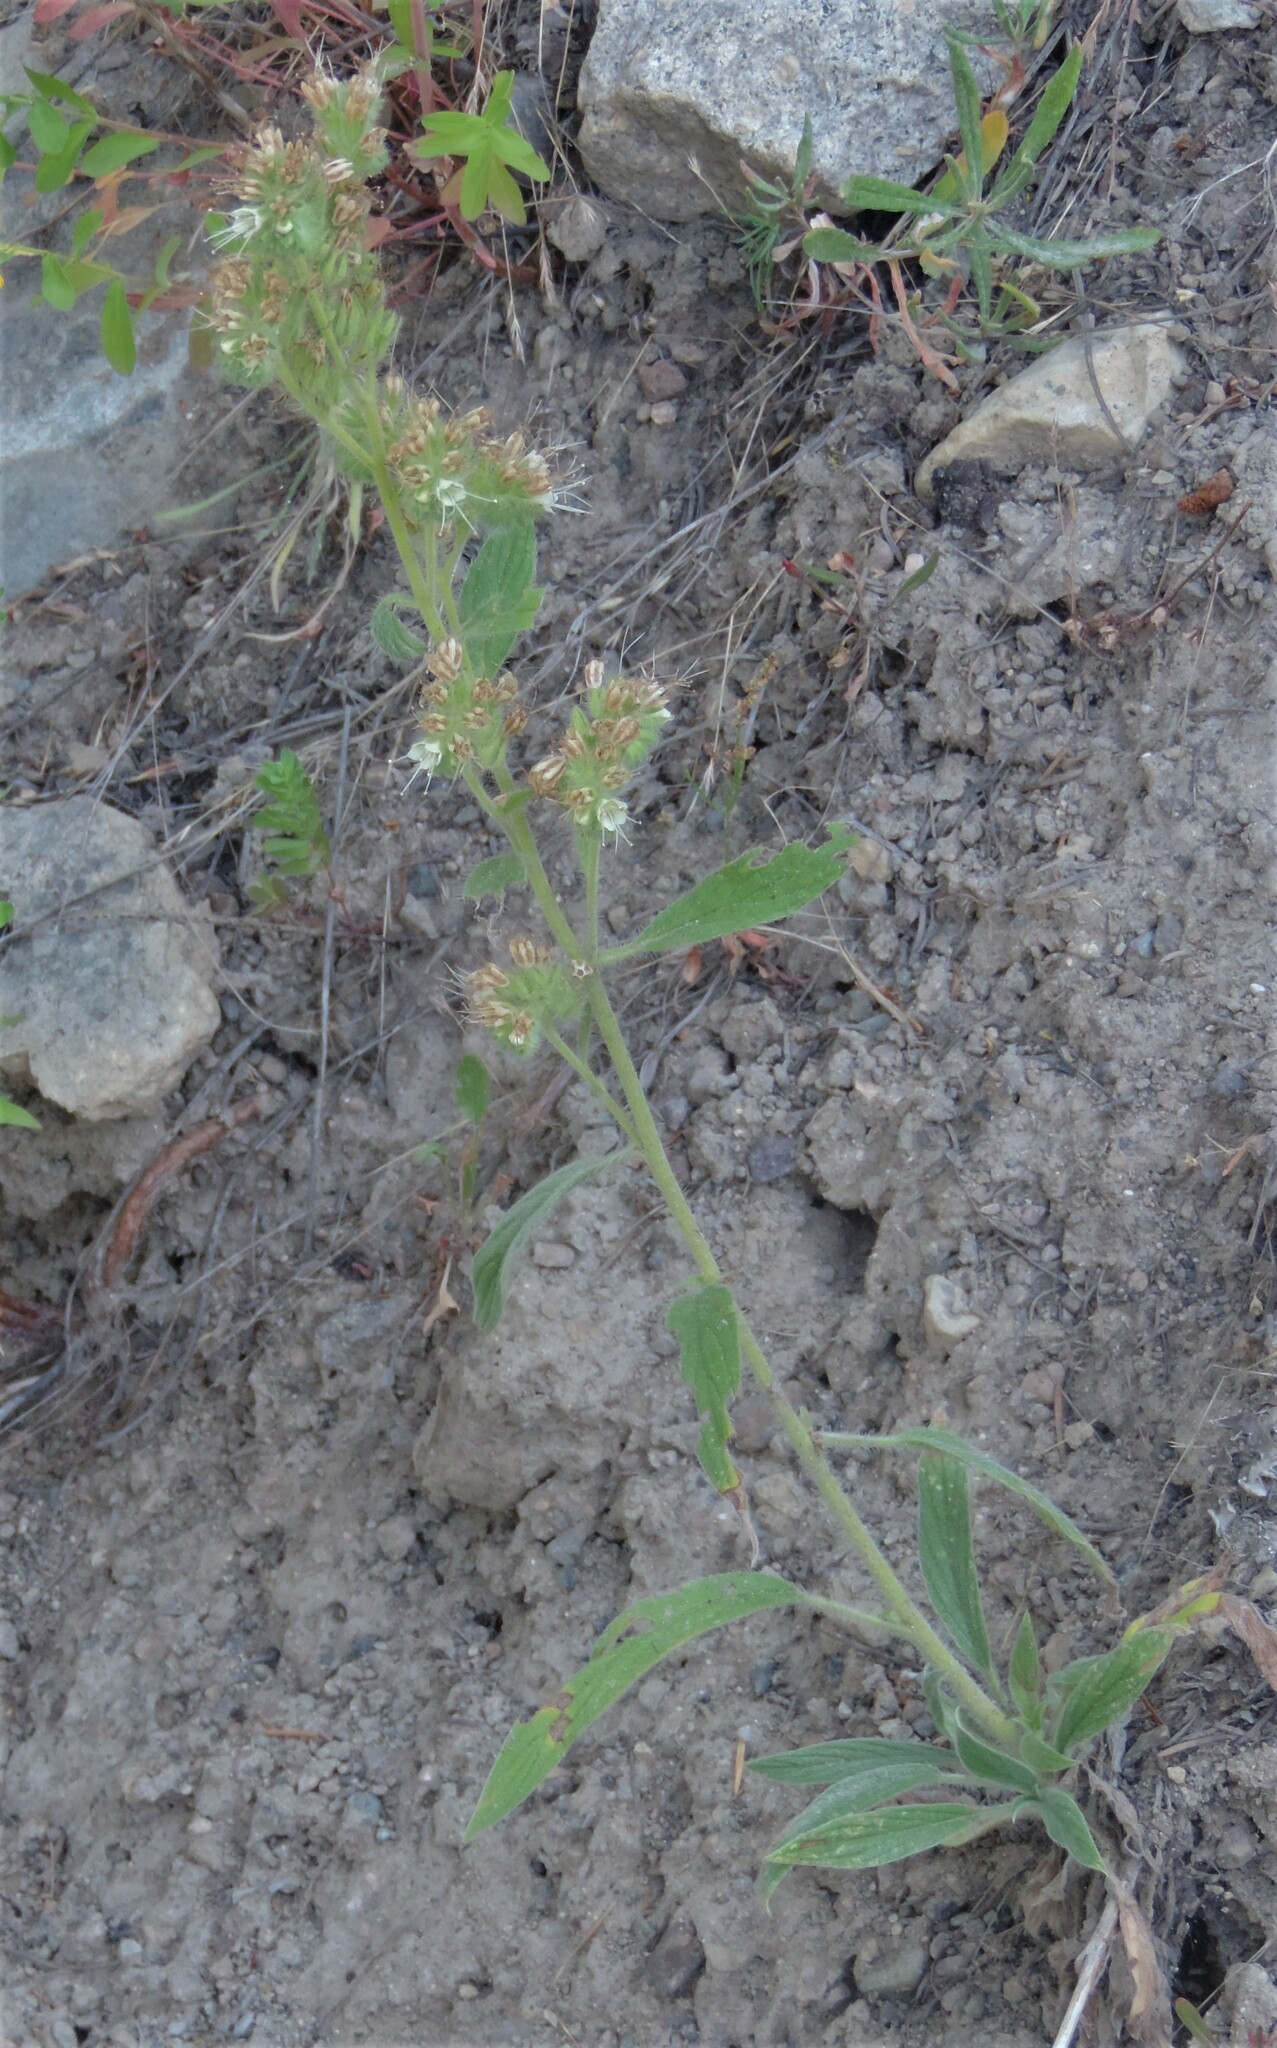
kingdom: Plantae
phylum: Tracheophyta
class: Magnoliopsida
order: Boraginales
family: Hydrophyllaceae
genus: Phacelia
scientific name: Phacelia heterophylla
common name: Variable-leaved phacelia
